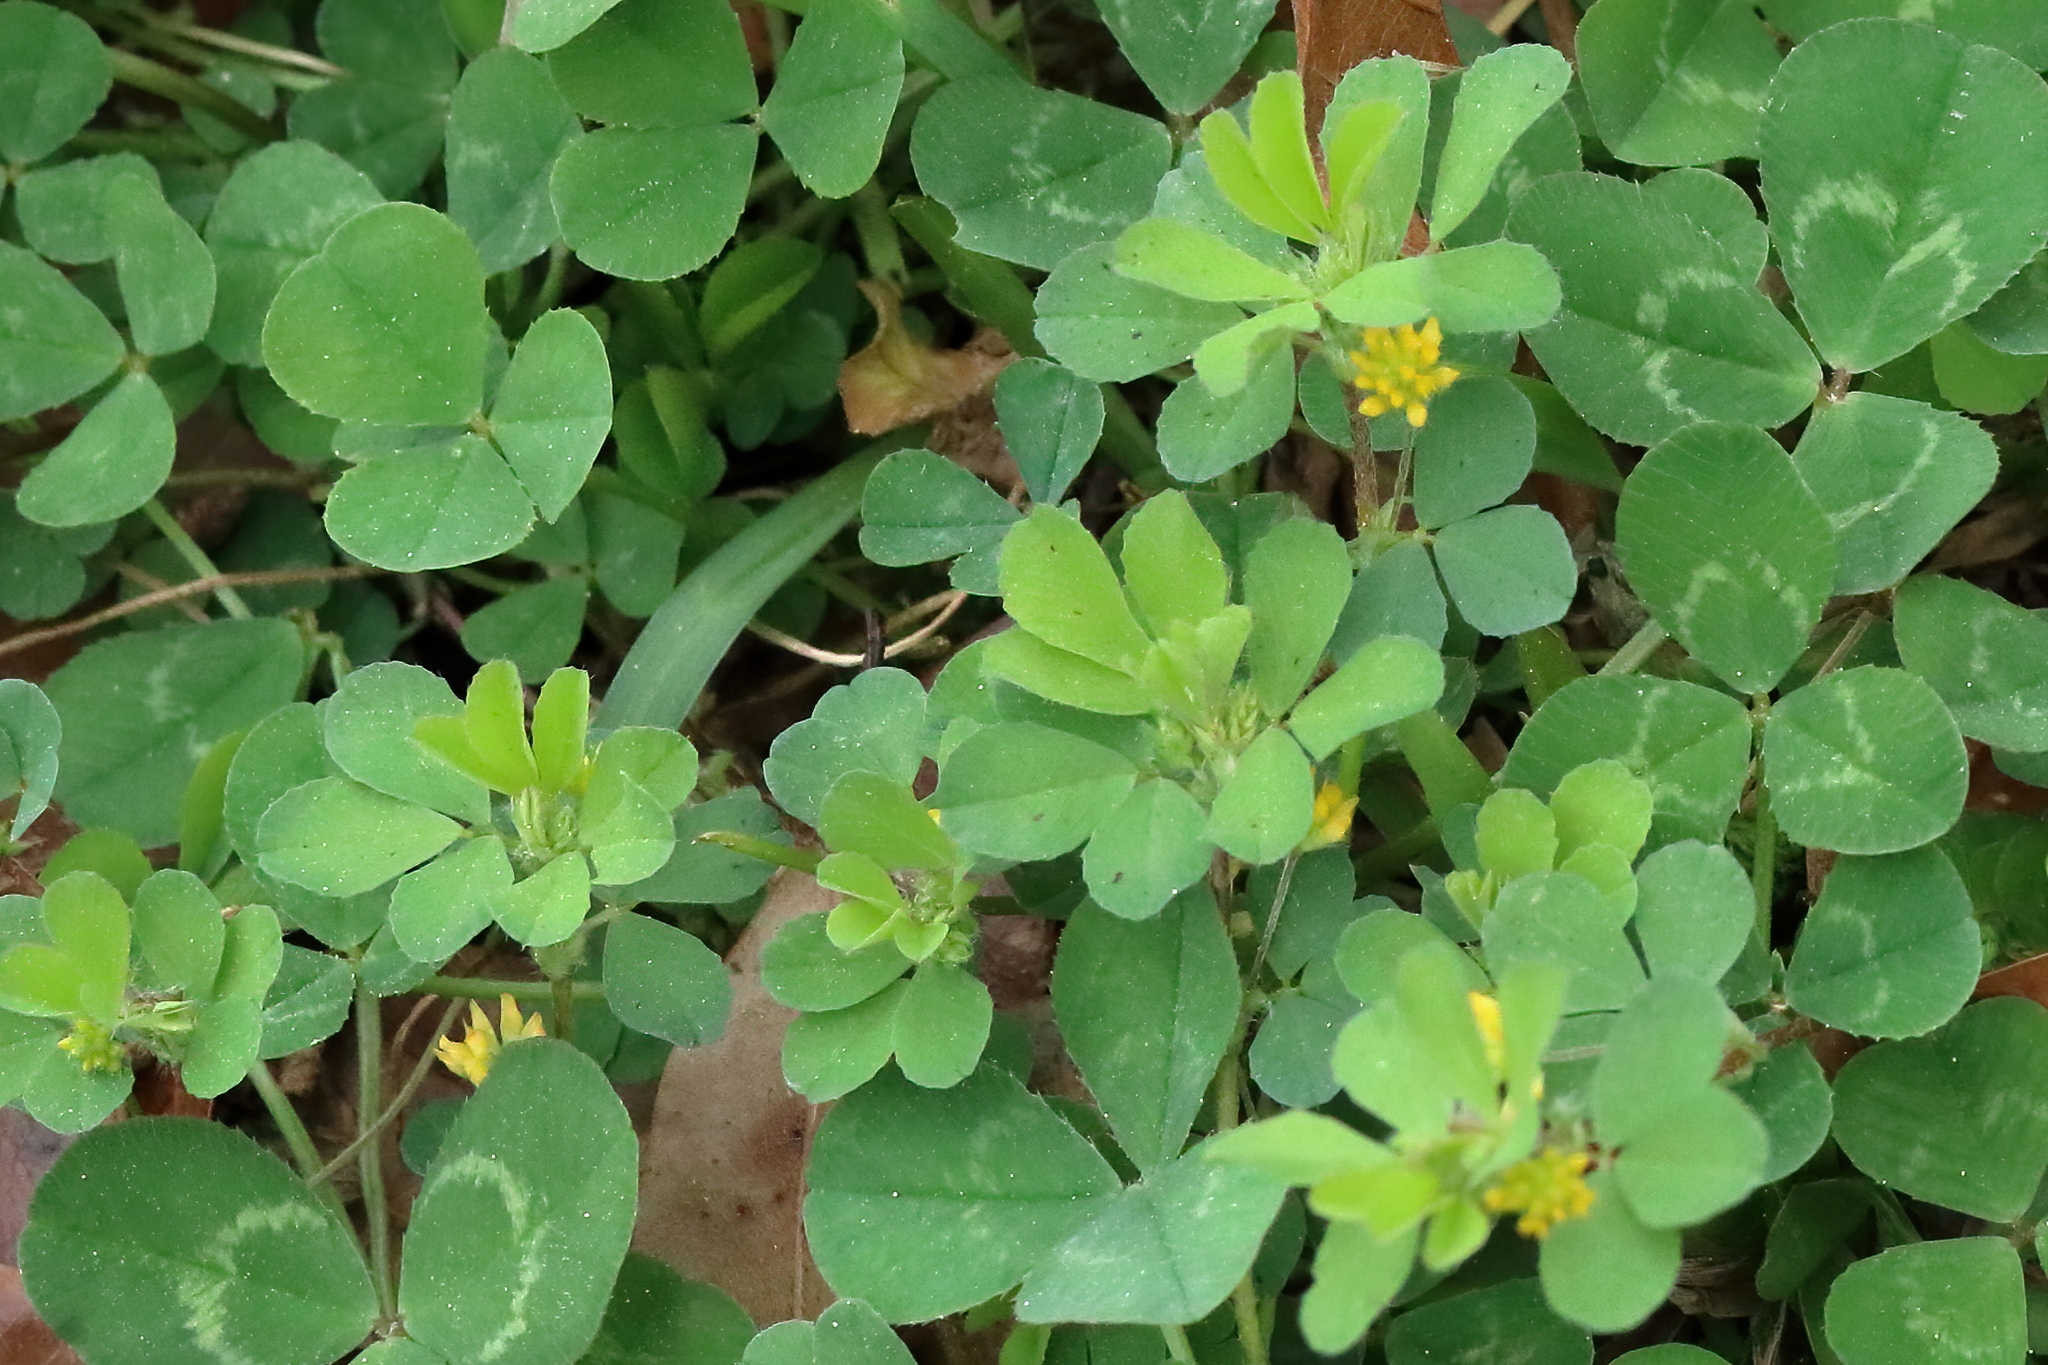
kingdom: Plantae
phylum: Tracheophyta
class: Magnoliopsida
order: Fabales
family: Fabaceae
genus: Trifolium
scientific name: Trifolium dubium
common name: Suckling clover
